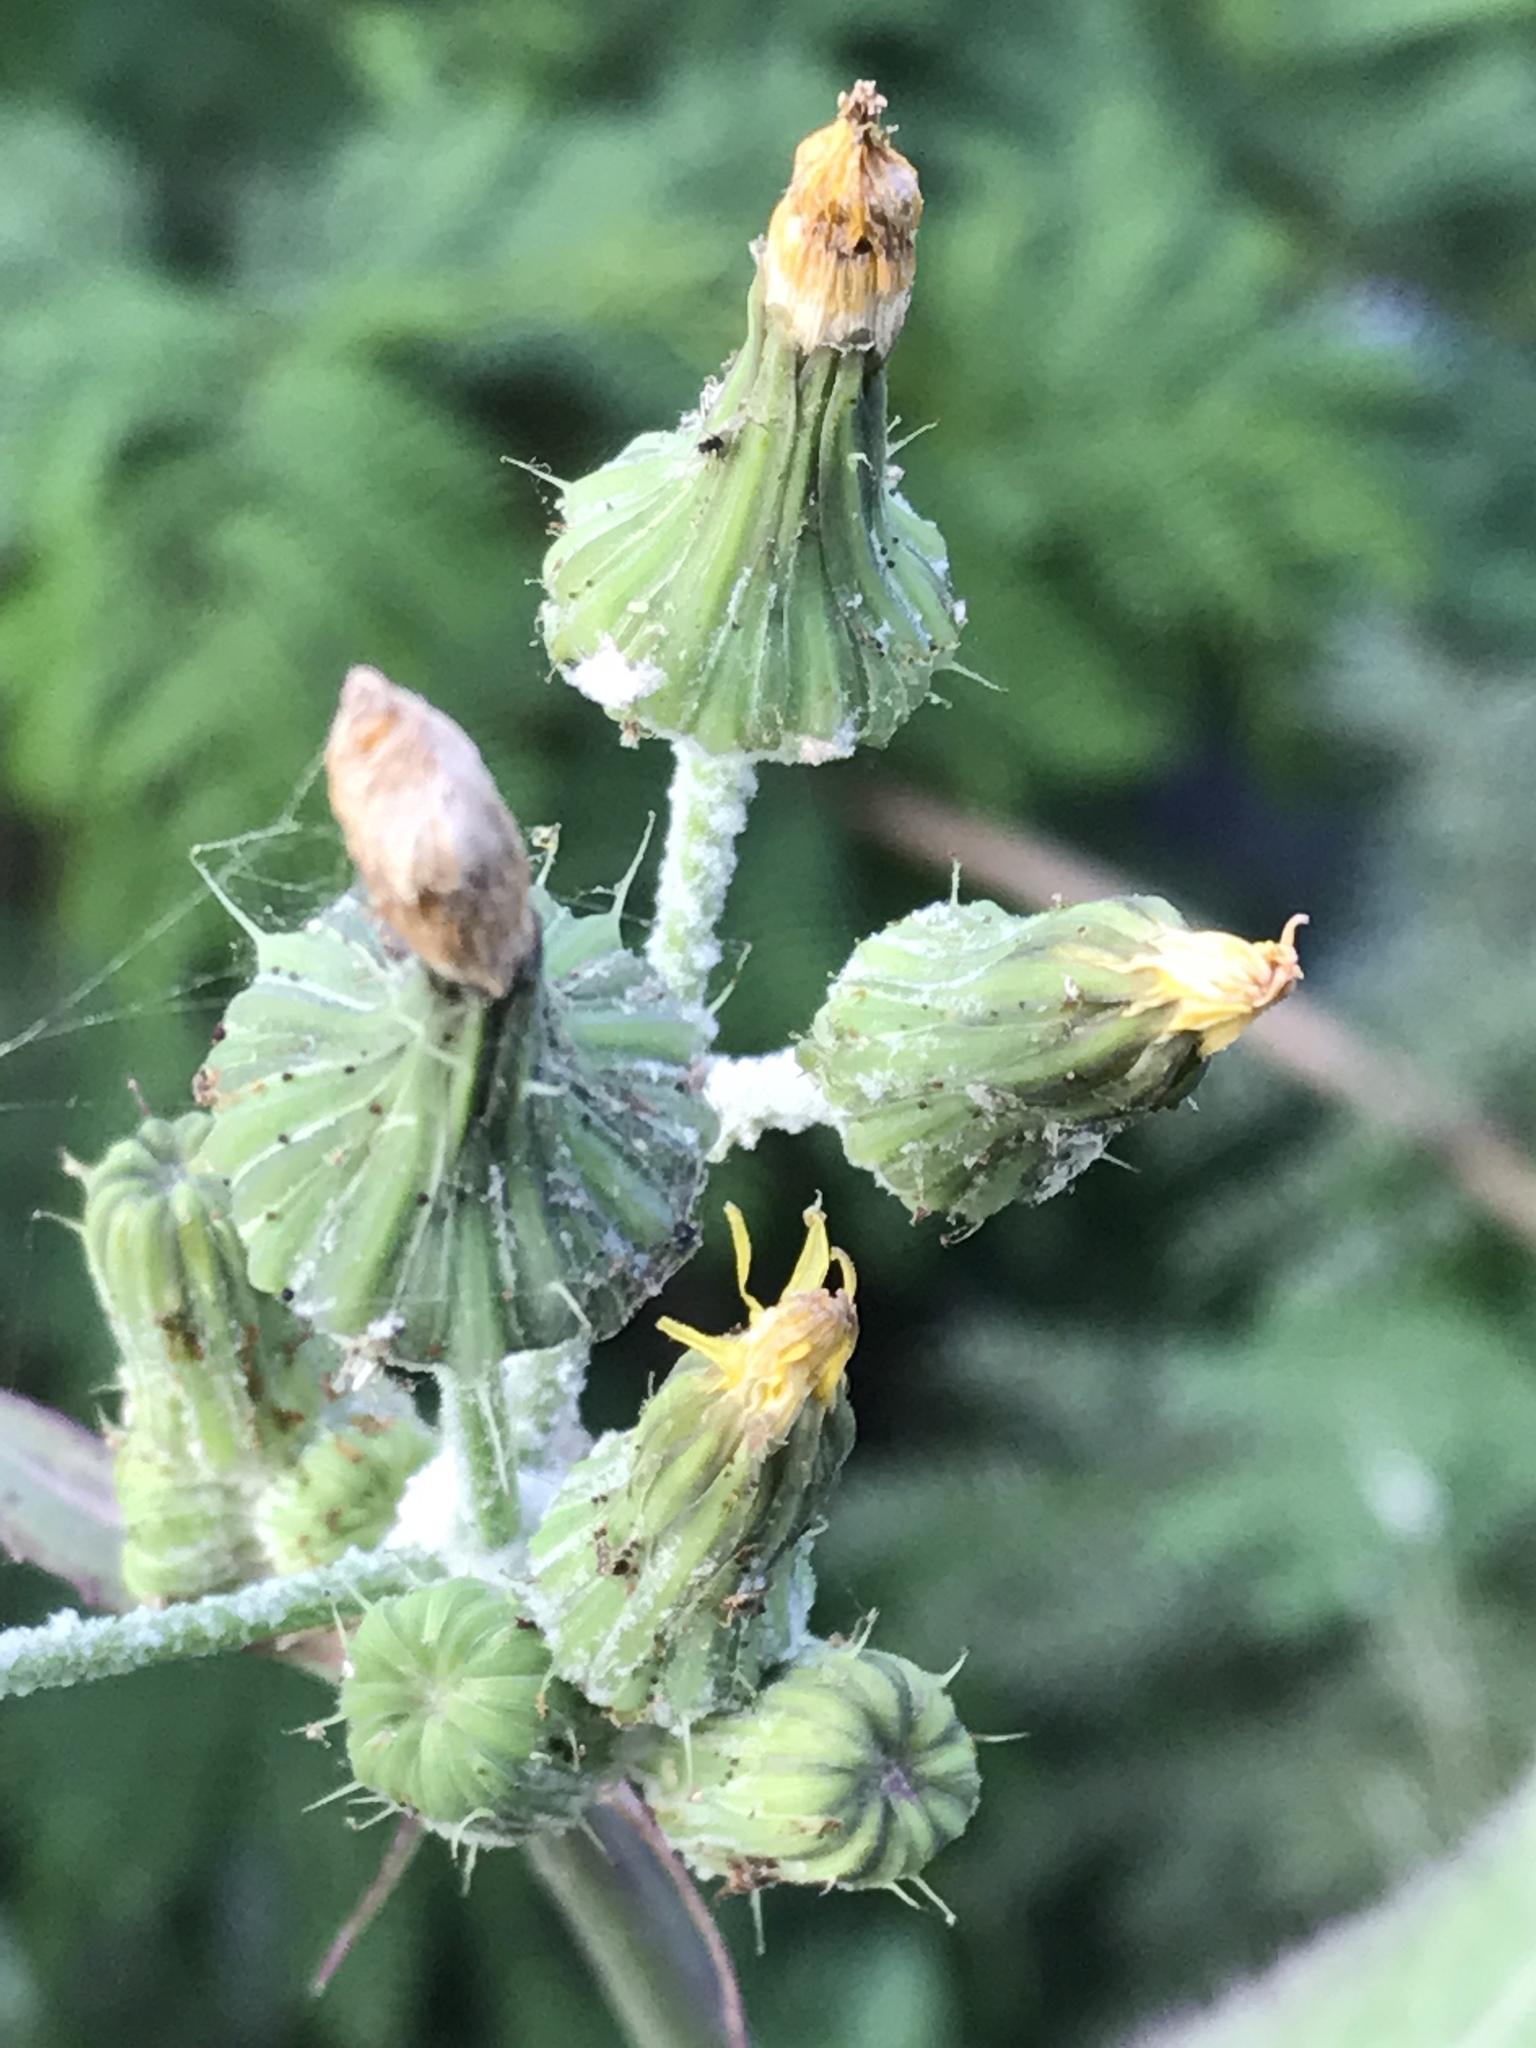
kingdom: Plantae
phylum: Tracheophyta
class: Magnoliopsida
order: Asterales
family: Asteraceae
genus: Sonchus
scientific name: Sonchus oleraceus
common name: Common sowthistle
